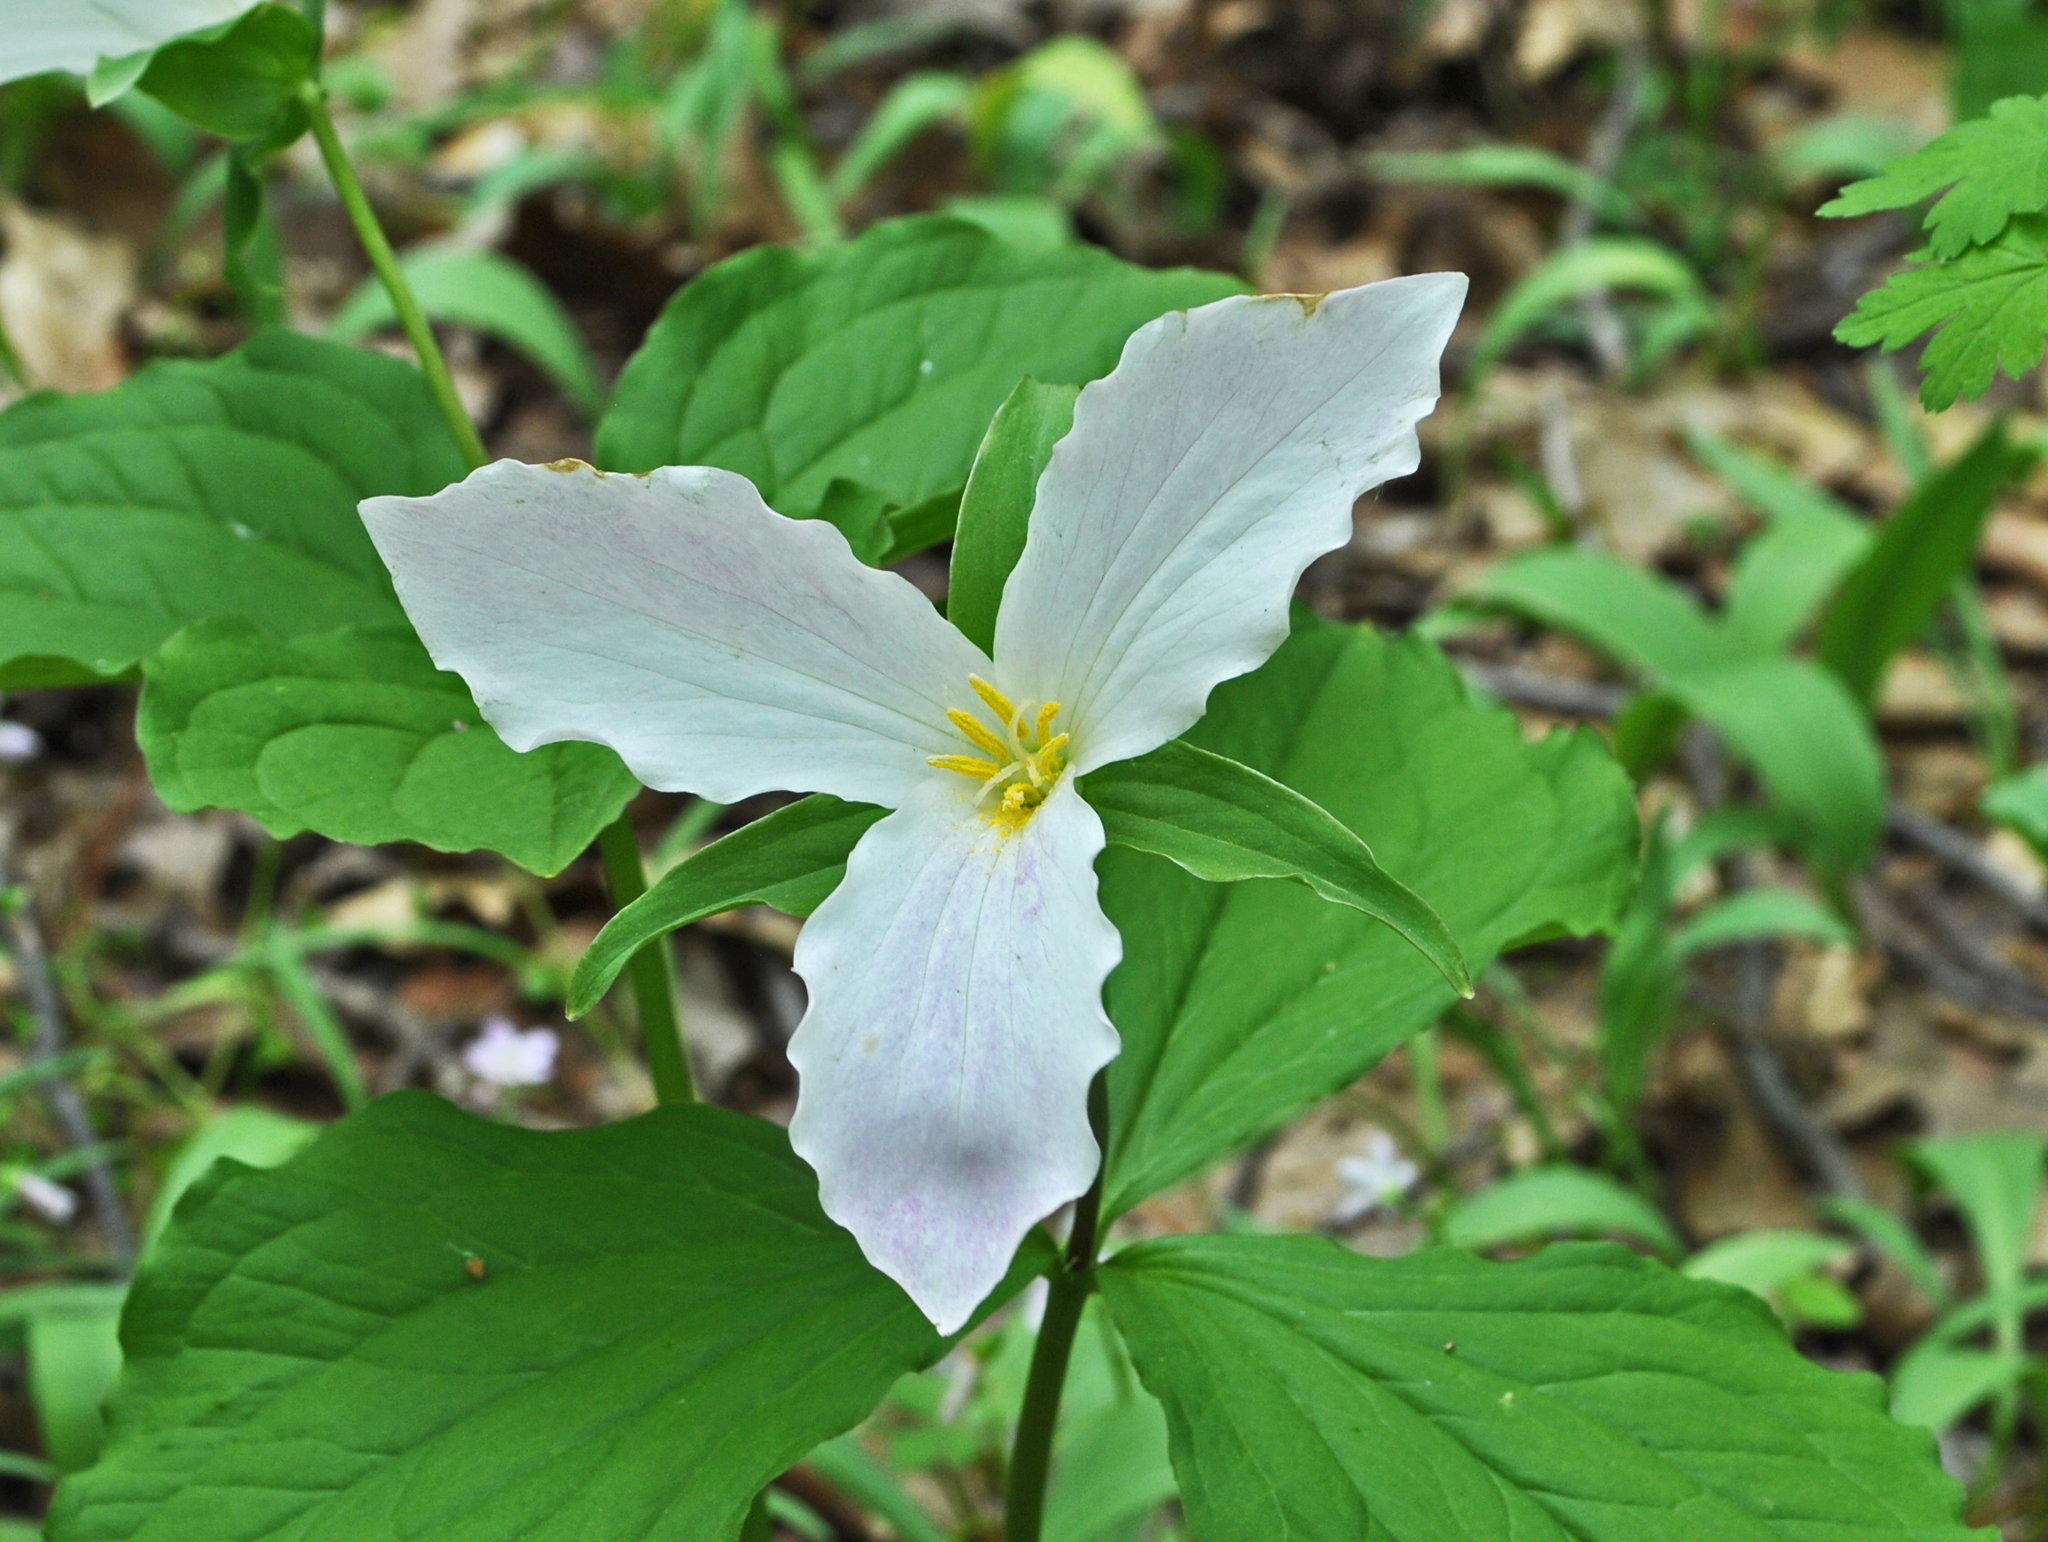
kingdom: Plantae
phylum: Tracheophyta
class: Liliopsida
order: Liliales
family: Melanthiaceae
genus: Trillium
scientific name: Trillium grandiflorum
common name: Great white trillium
